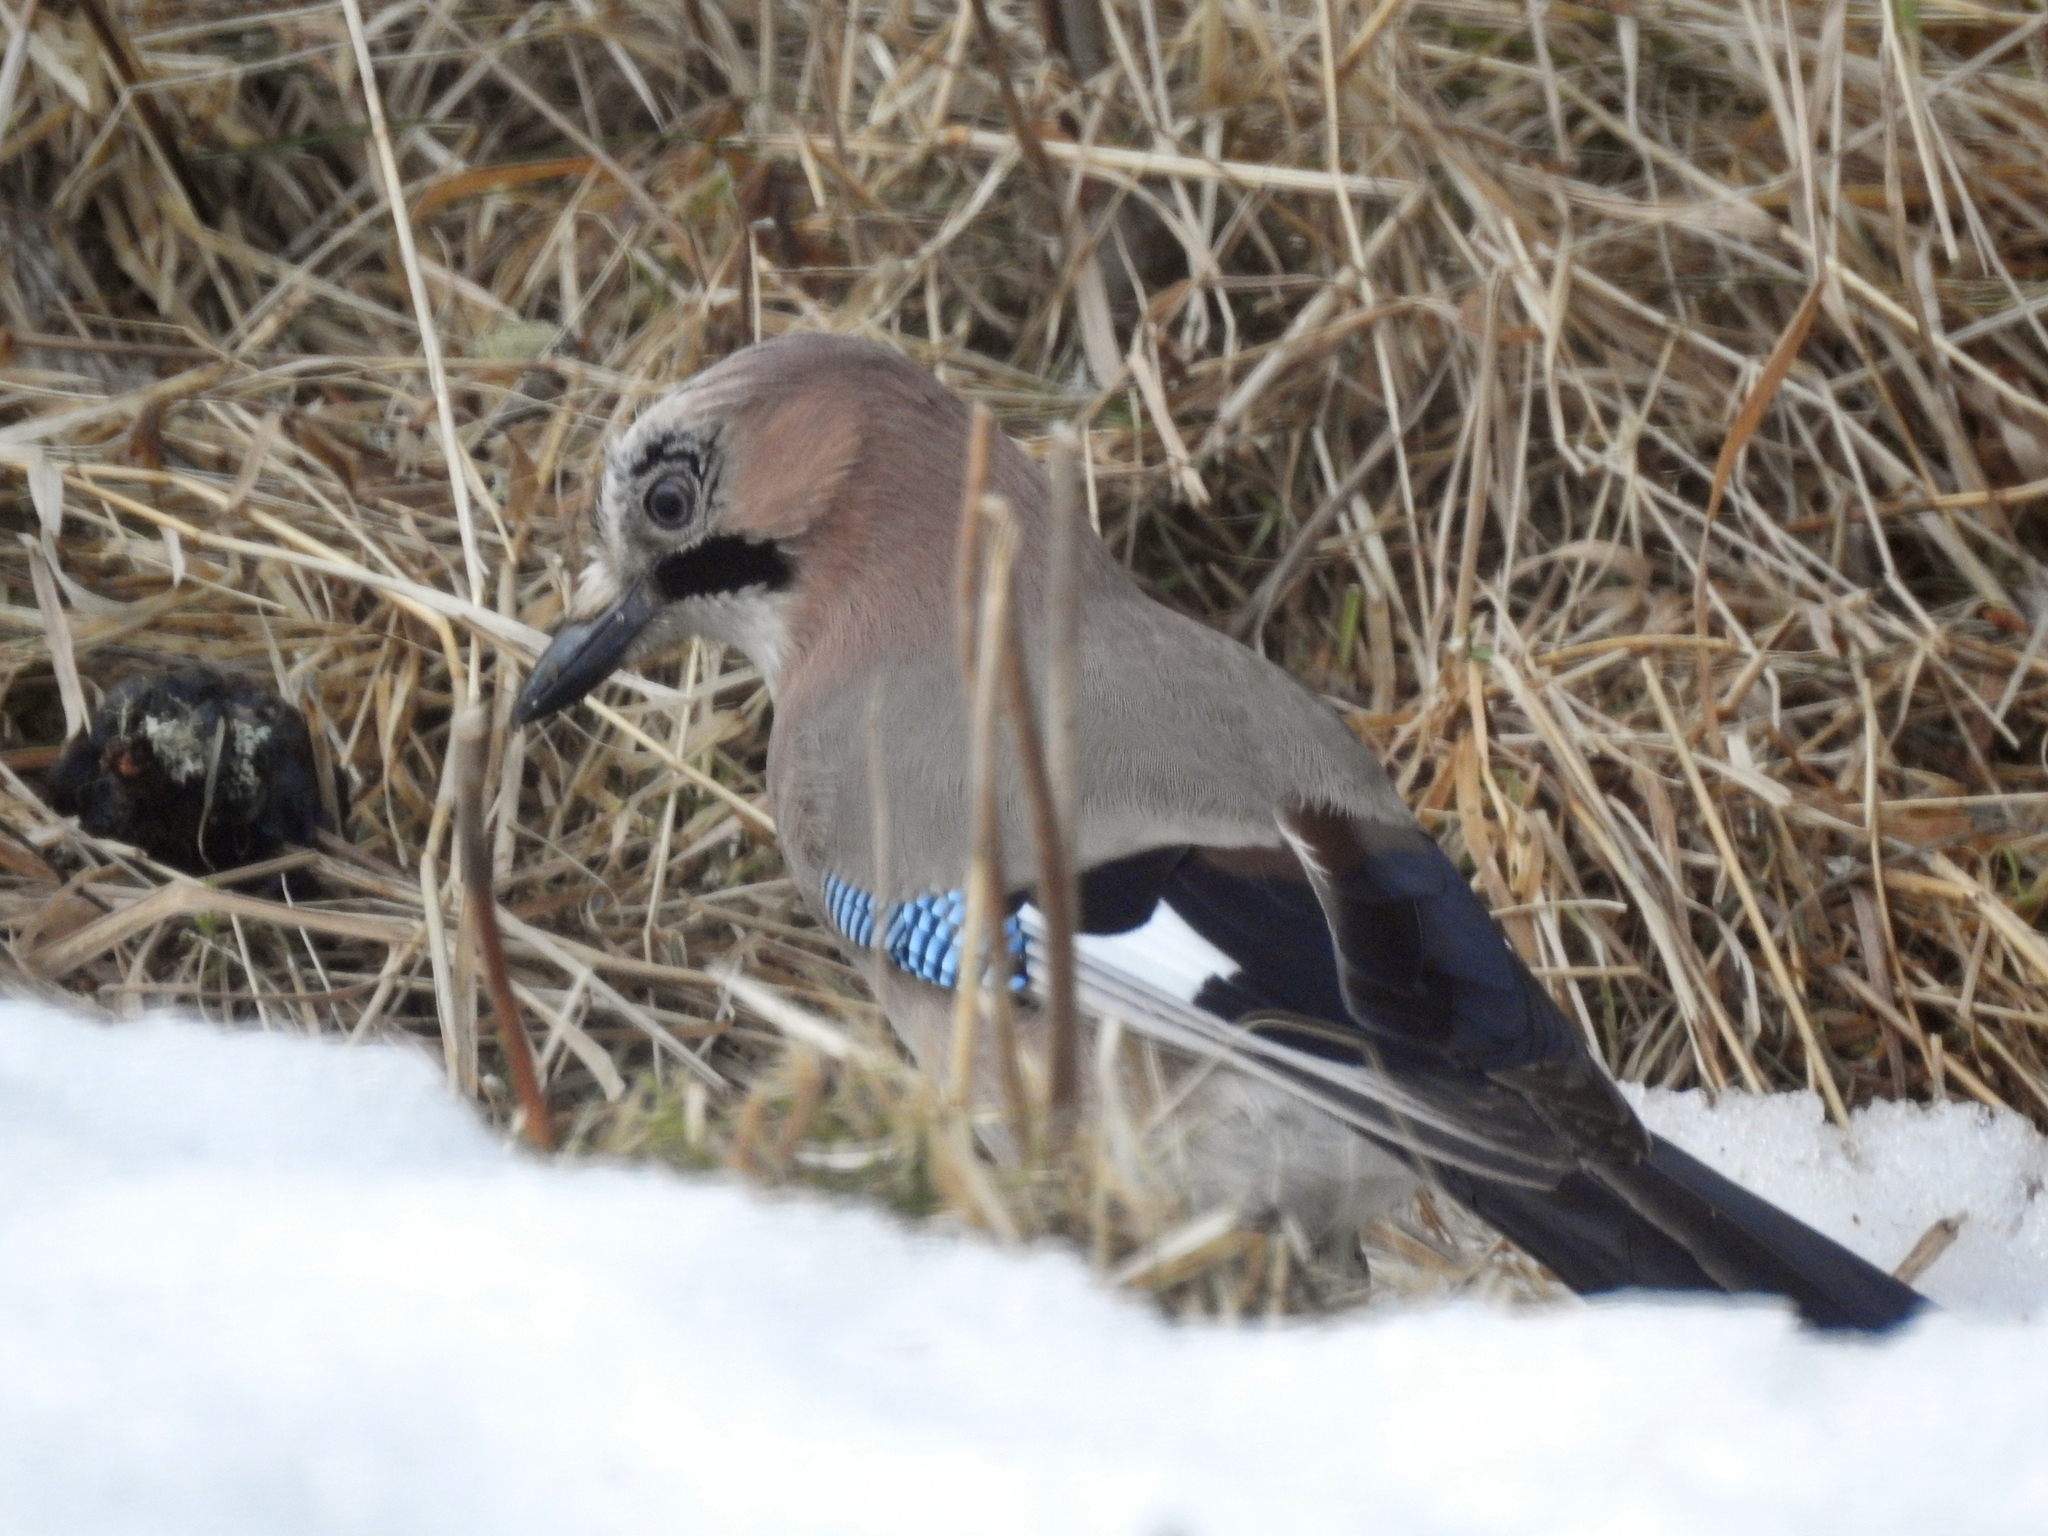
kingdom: Animalia
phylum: Chordata
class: Aves
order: Passeriformes
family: Corvidae
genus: Garrulus
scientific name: Garrulus glandarius
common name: Eurasian jay
